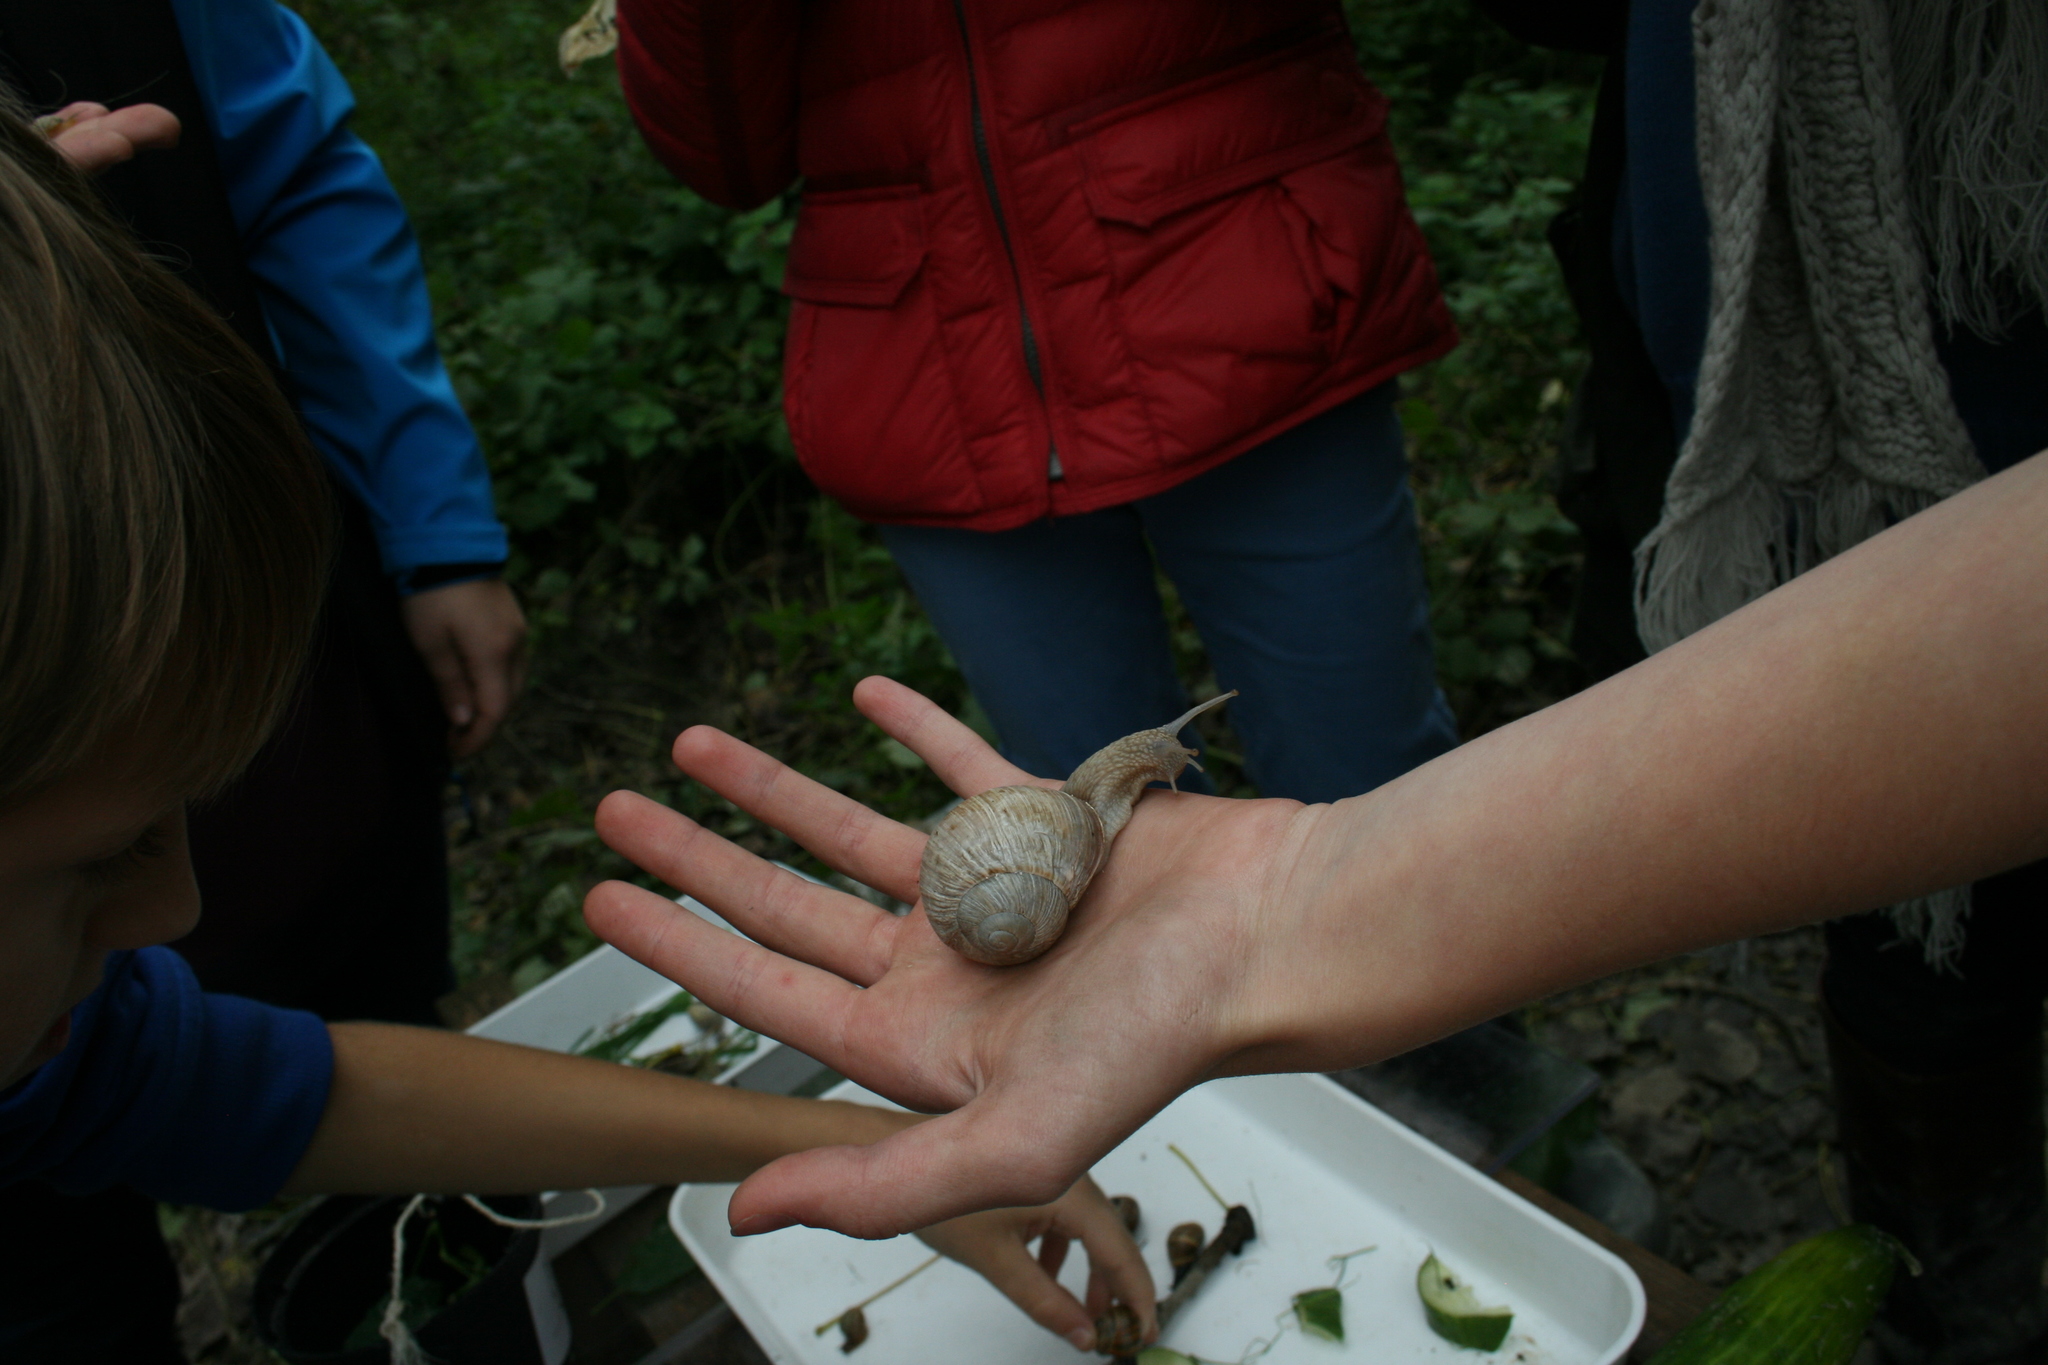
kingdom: Animalia
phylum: Mollusca
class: Gastropoda
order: Stylommatophora
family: Helicidae
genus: Helix
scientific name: Helix pomatia
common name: Roman snail
